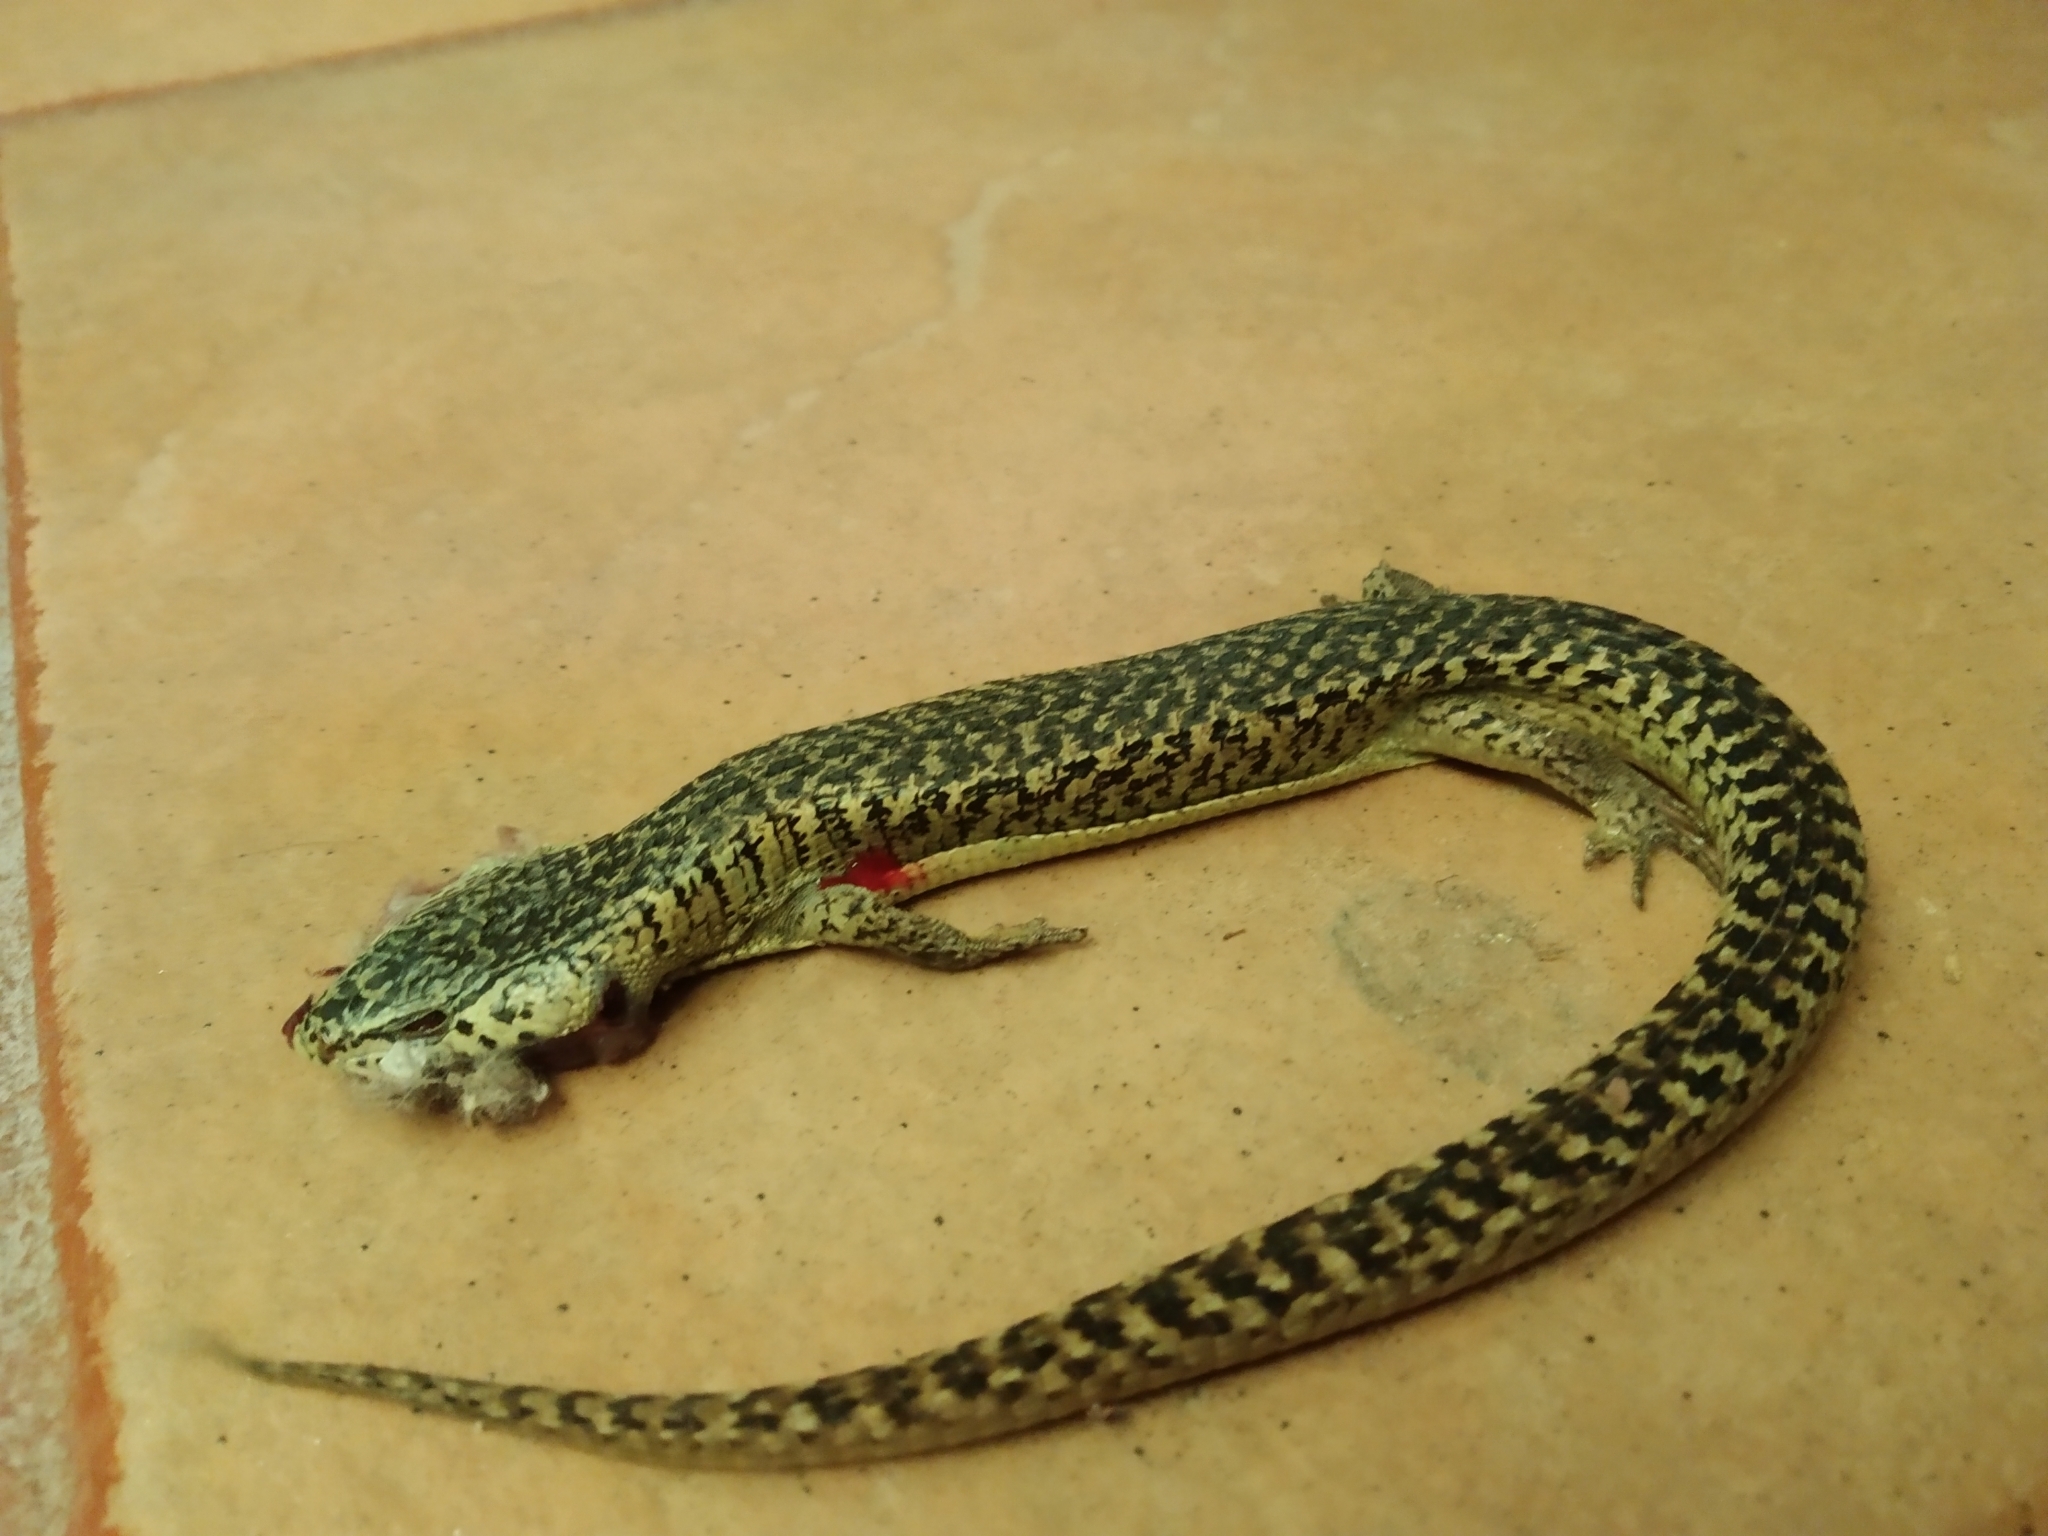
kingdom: Animalia
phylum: Chordata
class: Squamata
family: Anguidae
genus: Abronia
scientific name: Abronia moreletii
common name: Morelet's alligator lizard
